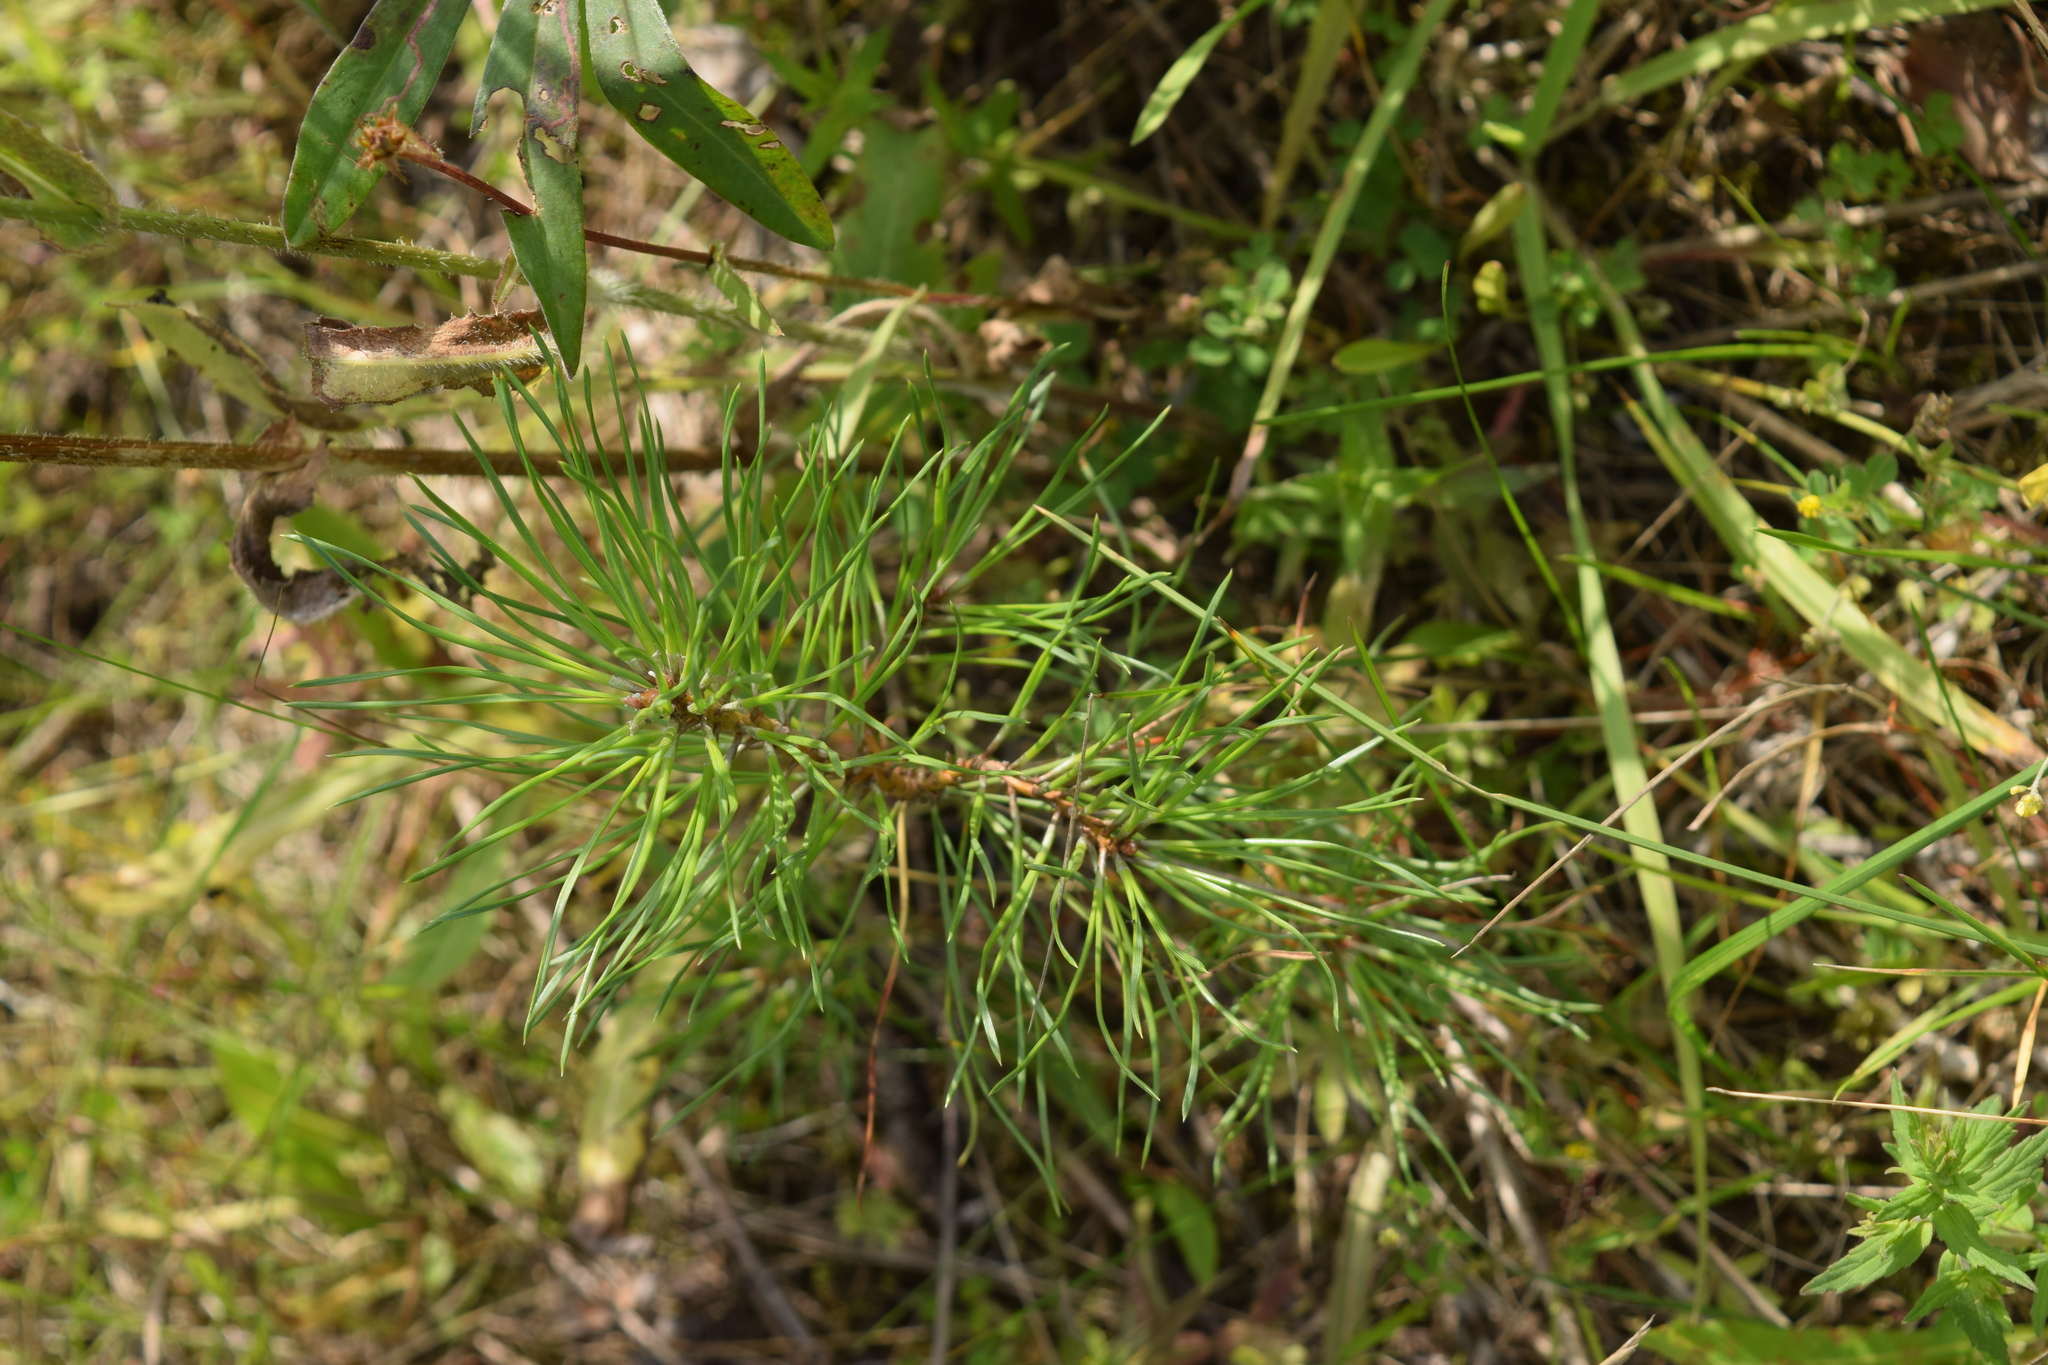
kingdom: Plantae
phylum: Tracheophyta
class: Pinopsida
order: Pinales
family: Pinaceae
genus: Pinus
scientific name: Pinus sylvestris
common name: Scots pine
